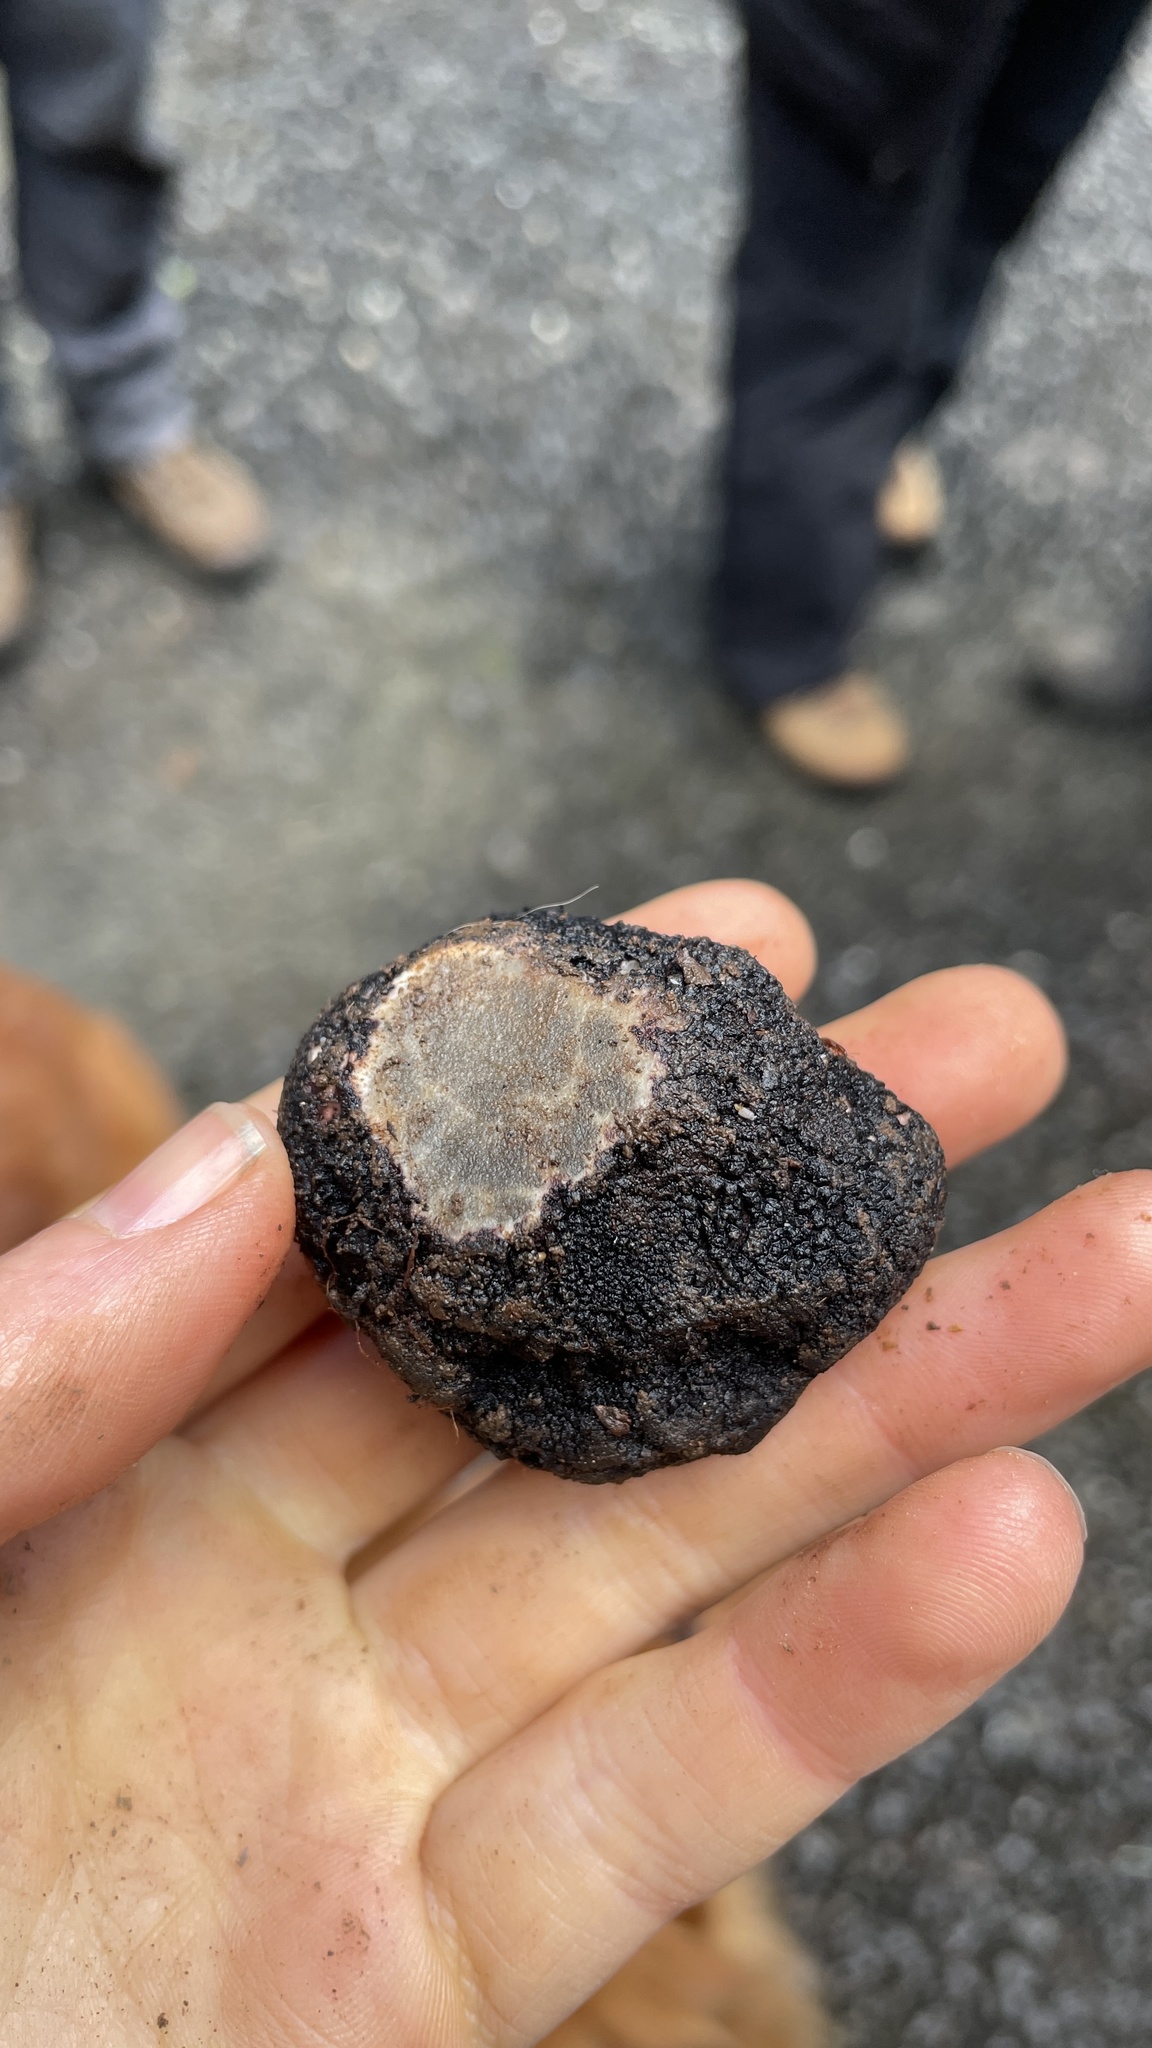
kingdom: Fungi
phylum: Ascomycota
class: Pezizomycetes
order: Pezizales
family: Morchellaceae
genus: Leucangium
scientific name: Leucangium carthusianum
